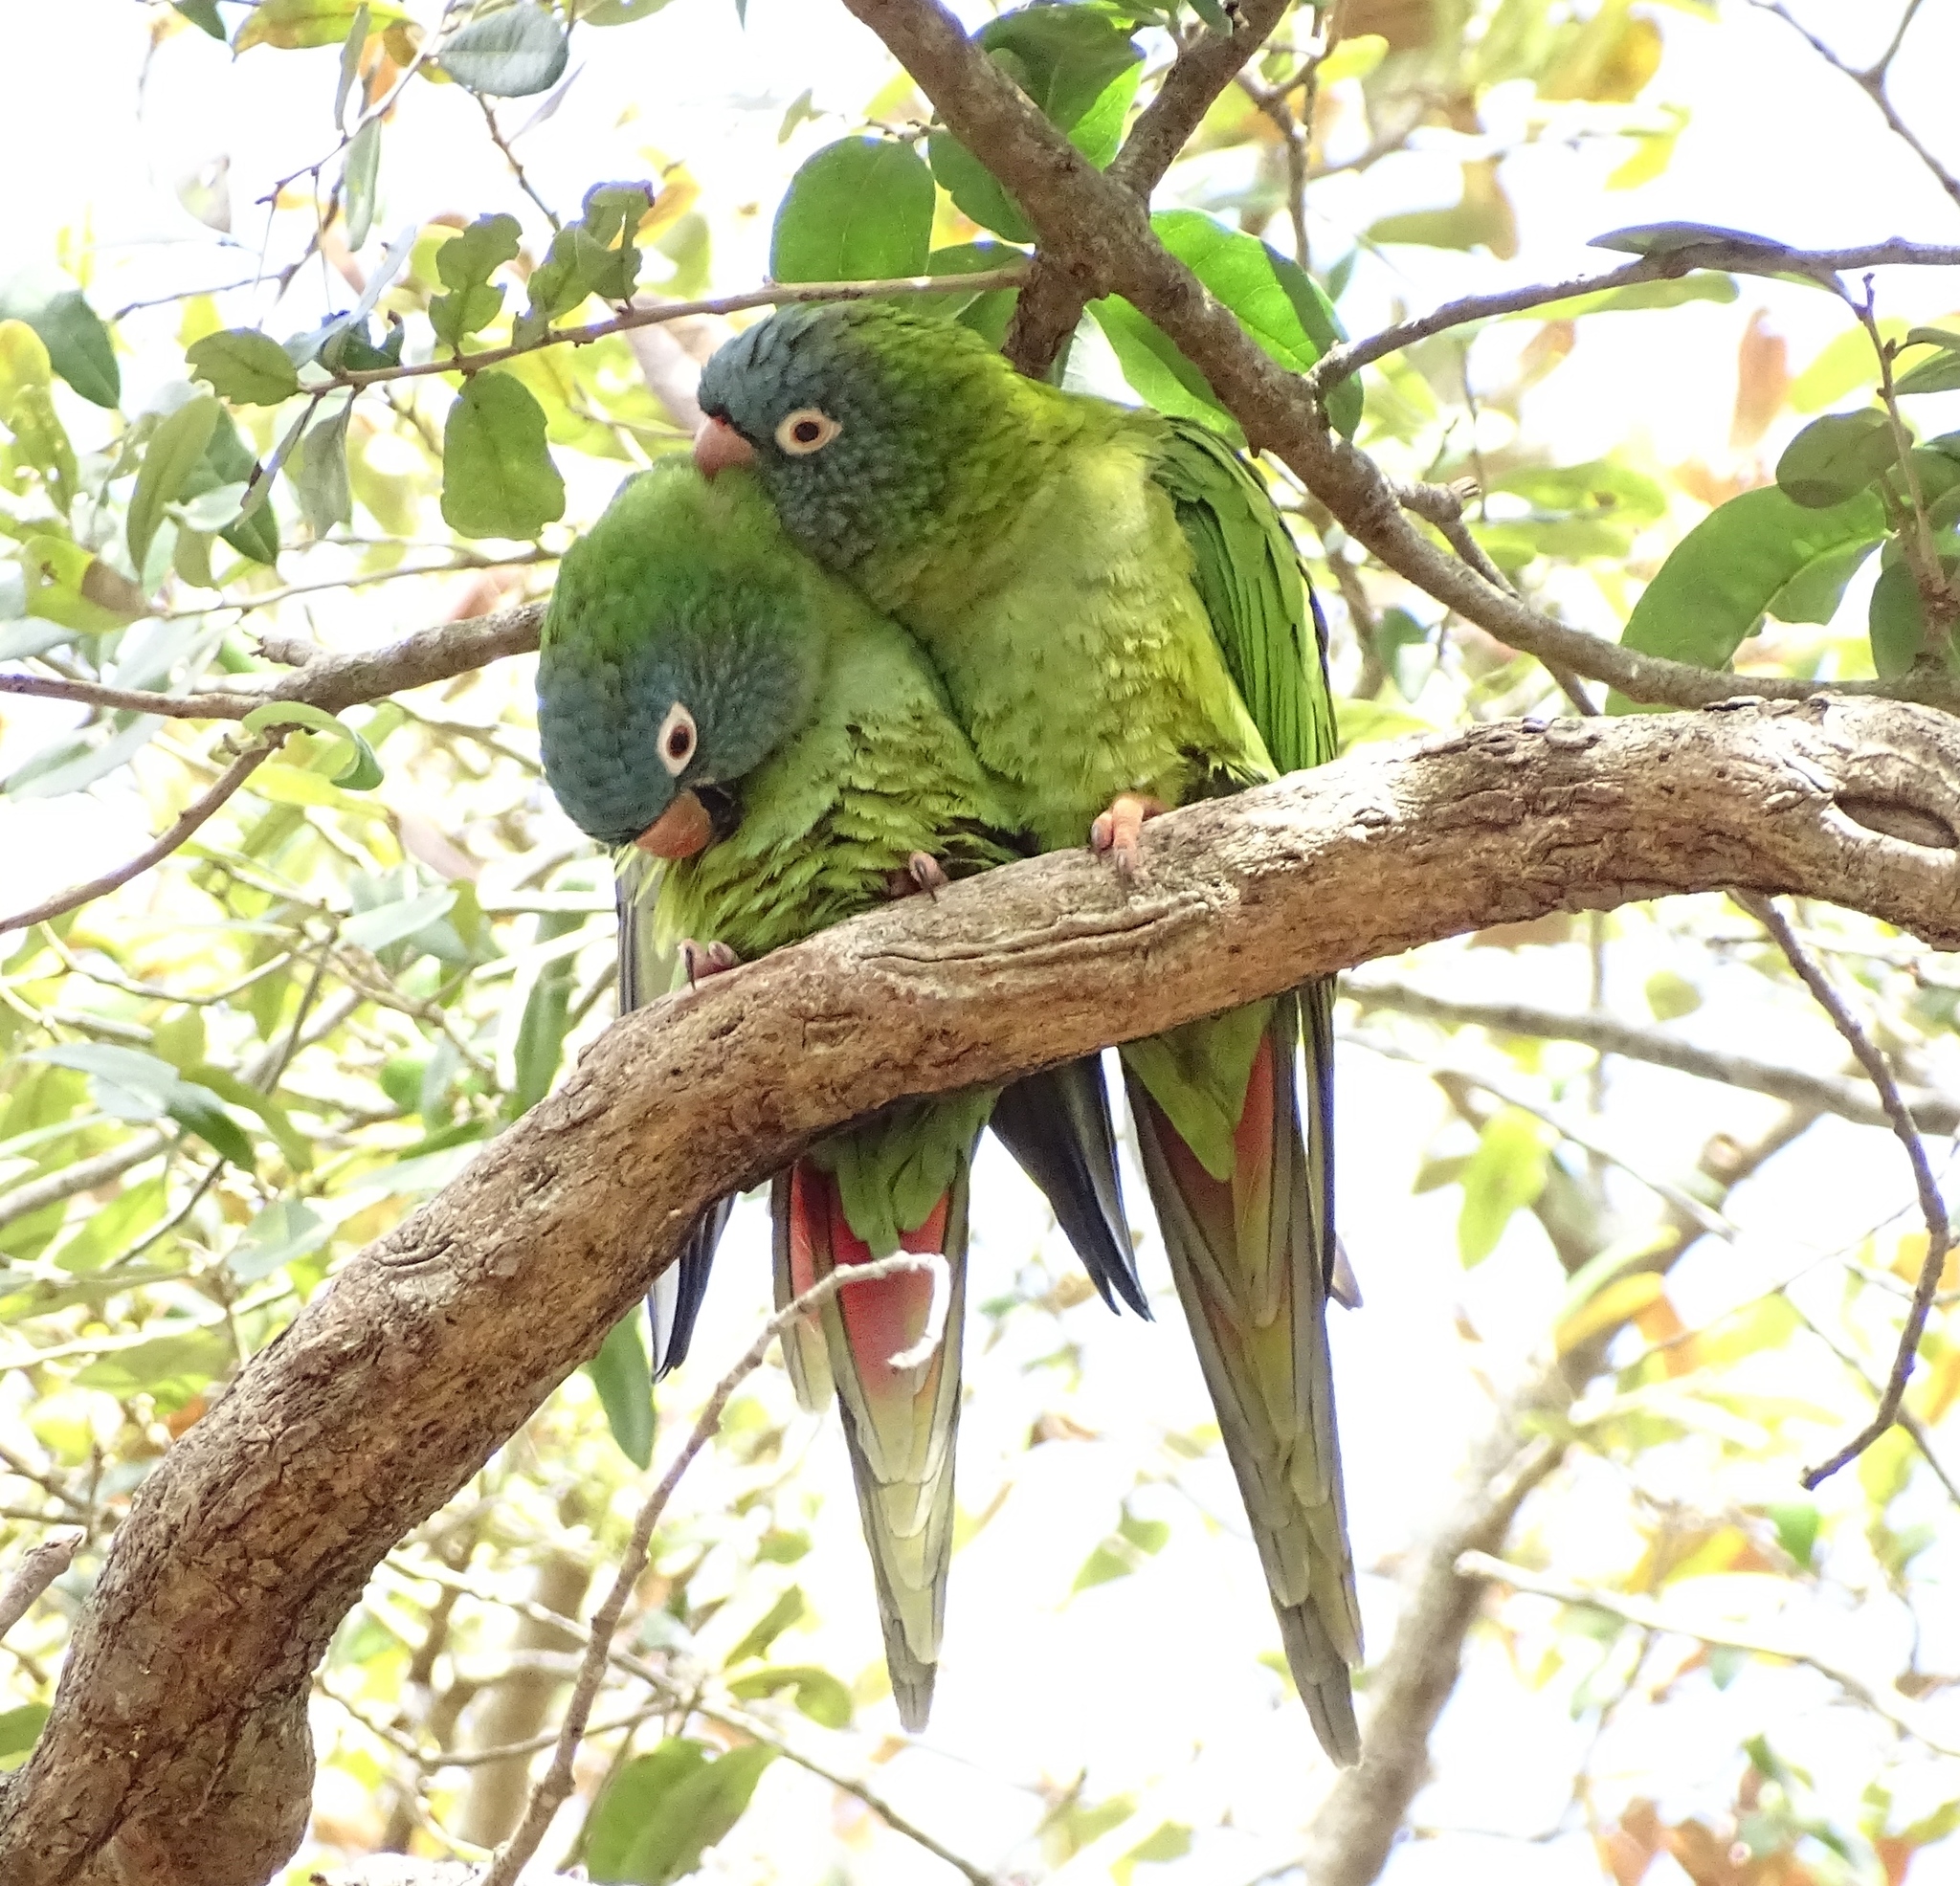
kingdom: Animalia
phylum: Chordata
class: Aves
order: Psittaciformes
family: Psittacidae
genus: Aratinga
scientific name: Aratinga acuticaudata
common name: Blue-crowned parakeet
